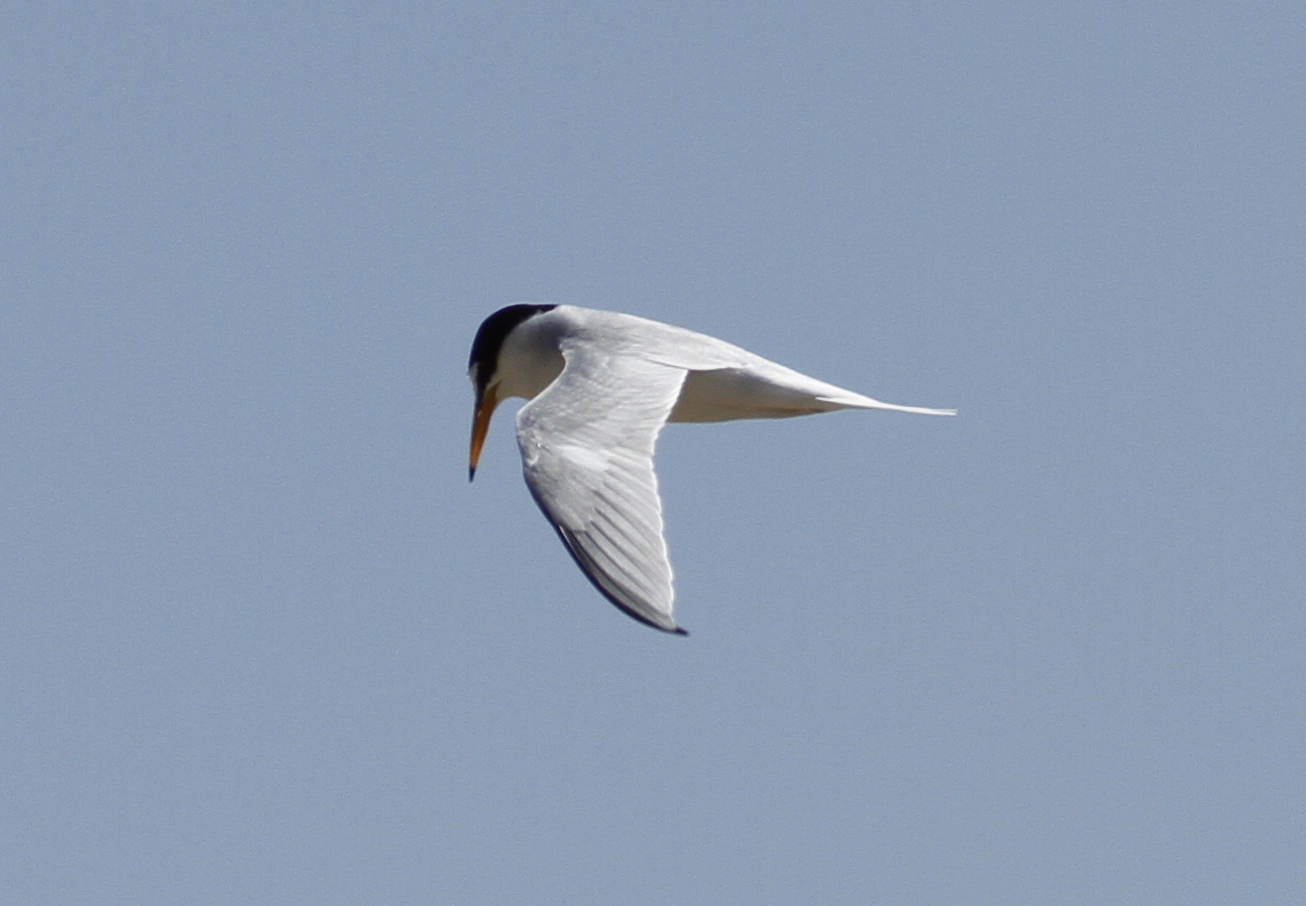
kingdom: Animalia
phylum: Chordata
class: Aves
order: Charadriiformes
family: Laridae
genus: Sternula
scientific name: Sternula albifrons
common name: Little tern
